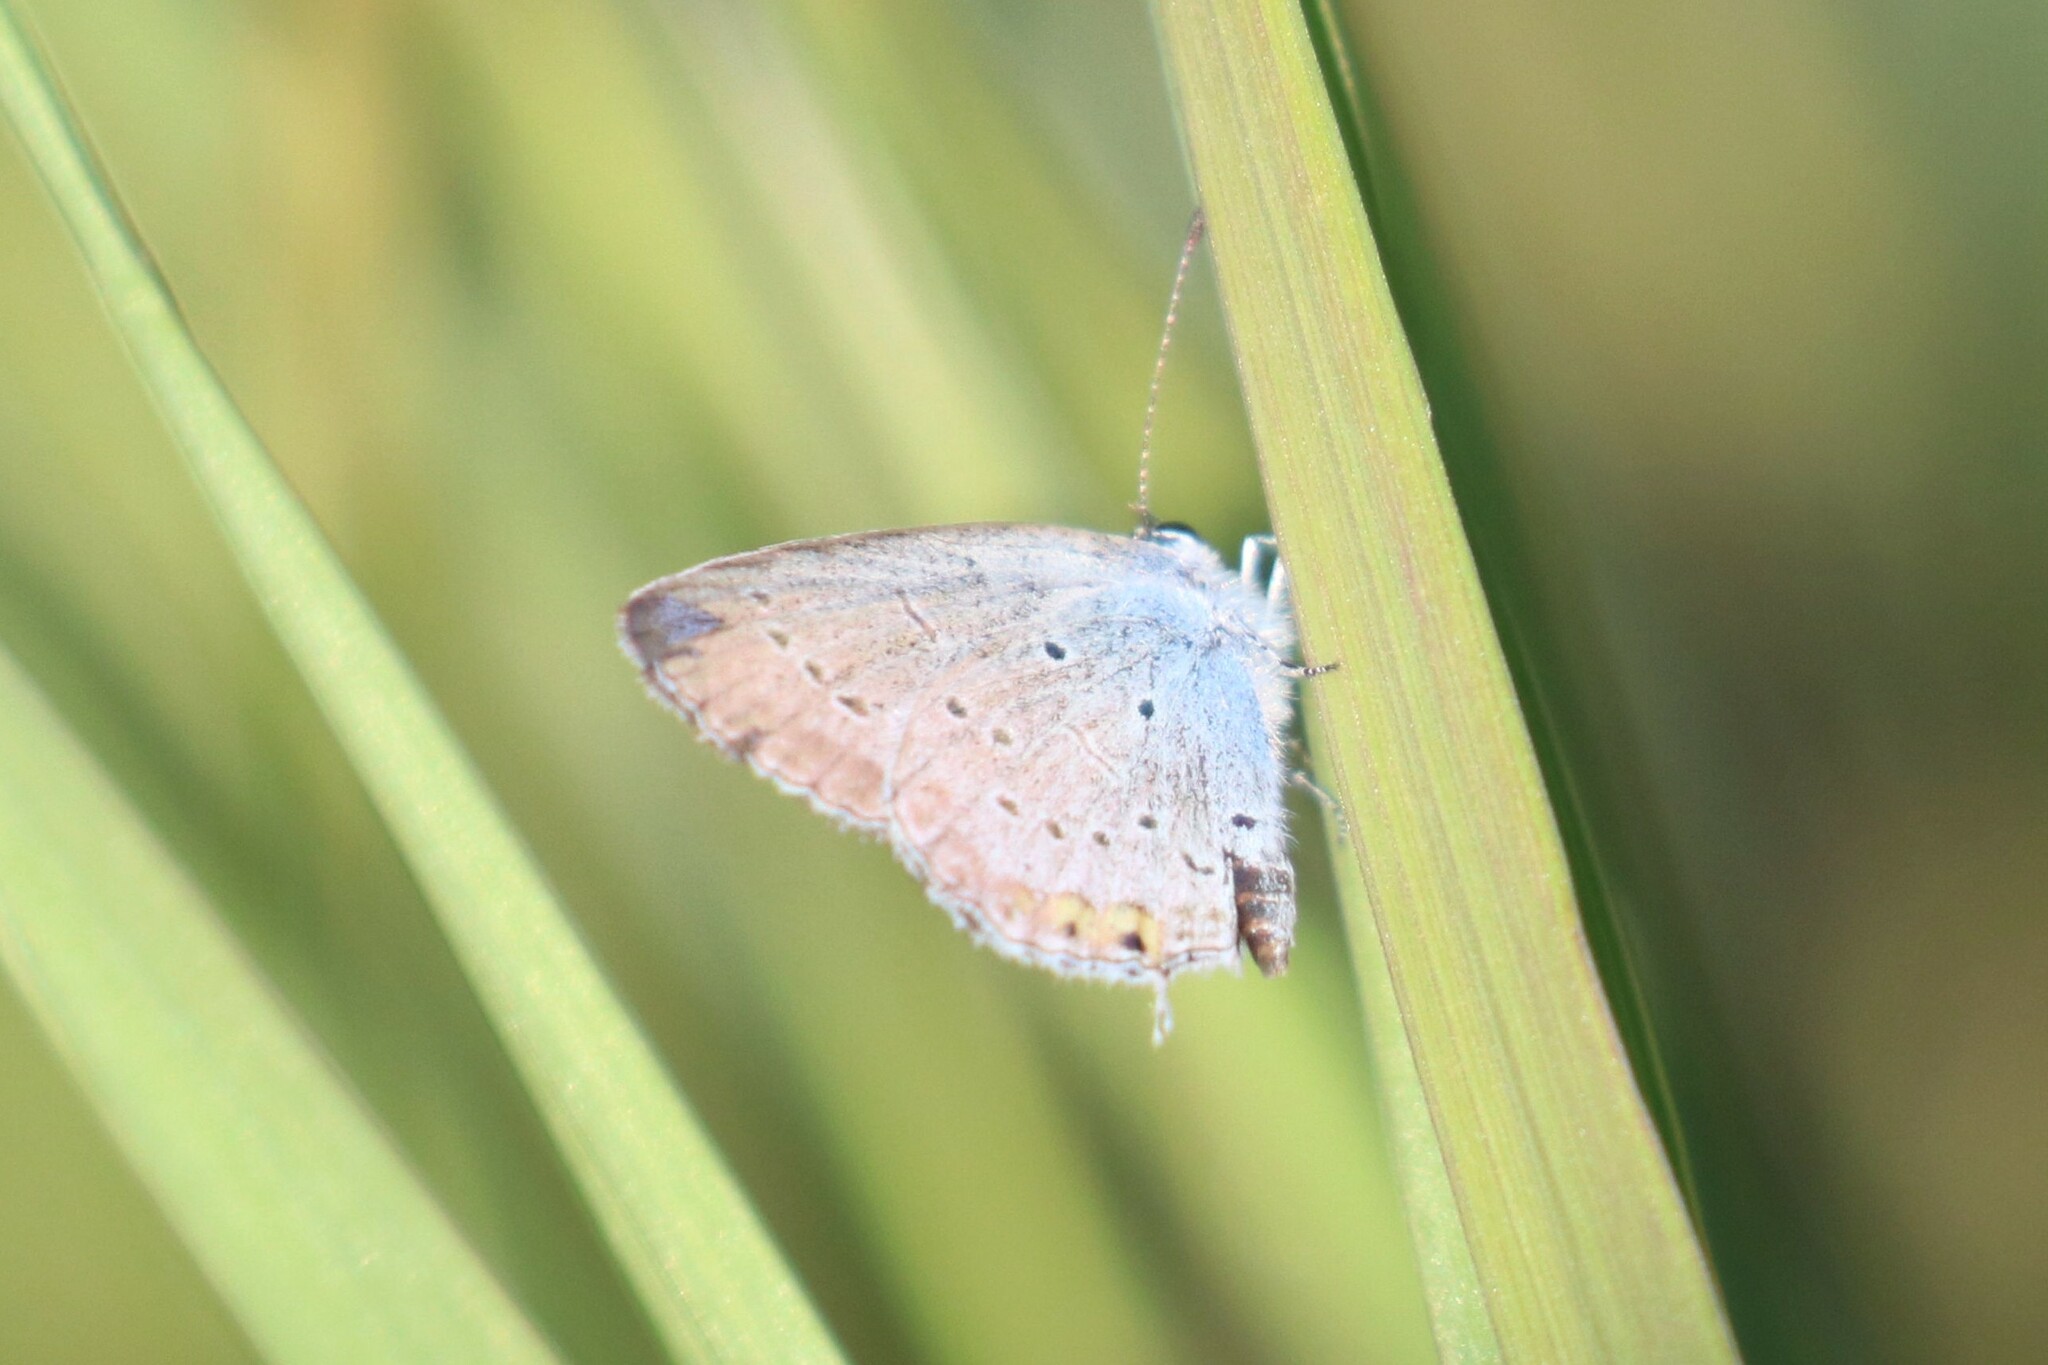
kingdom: Animalia
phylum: Arthropoda
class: Insecta
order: Lepidoptera
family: Lycaenidae
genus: Elkalyce
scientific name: Elkalyce argiades
